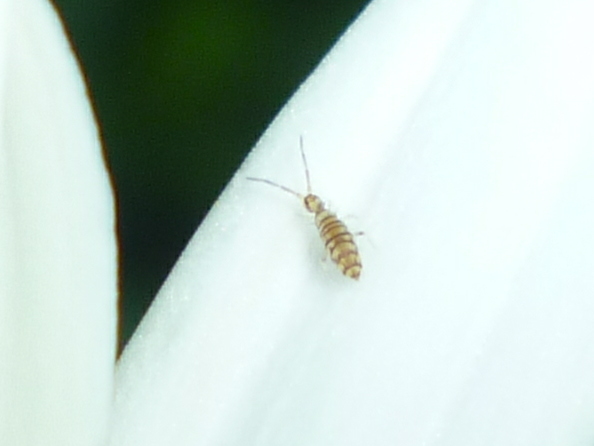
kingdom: Animalia
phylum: Arthropoda
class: Collembola
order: Entomobryomorpha
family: Entomobryidae
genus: Entomobrya
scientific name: Entomobrya atrocincta
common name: Springtail
